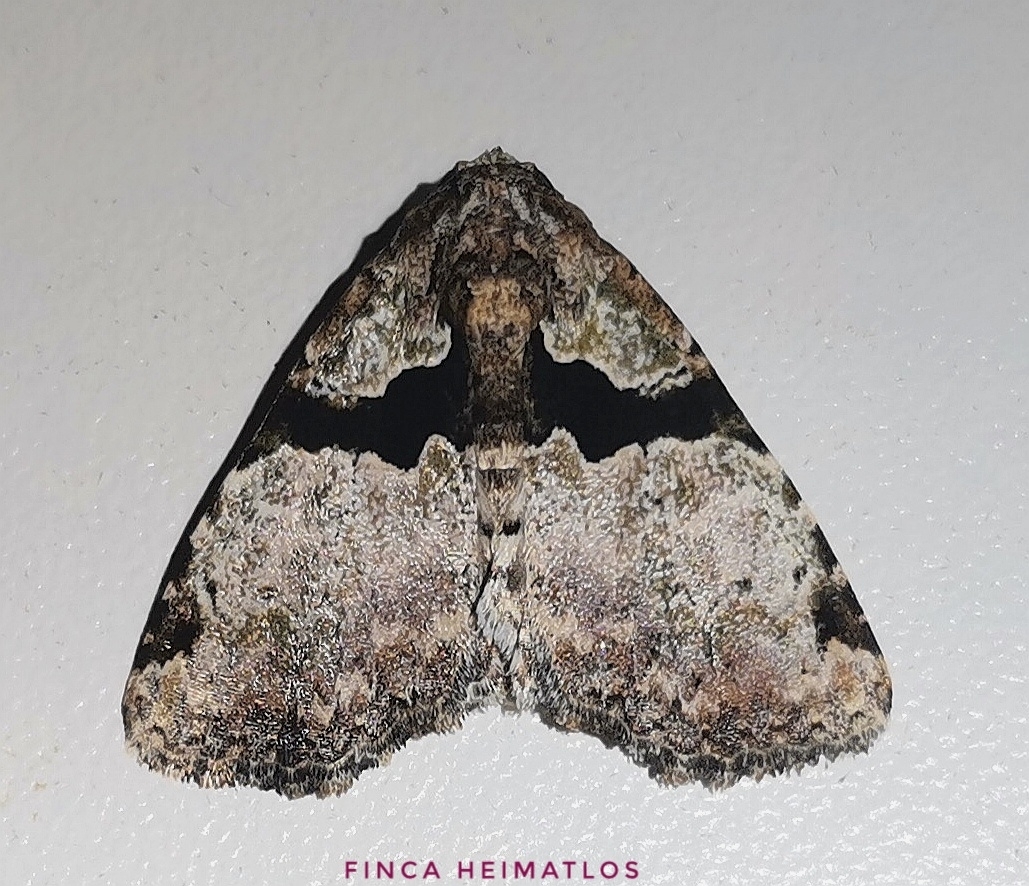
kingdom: Animalia
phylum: Arthropoda
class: Insecta
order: Lepidoptera
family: Erebidae
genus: Eudyops
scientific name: Eudyops polyleuca
